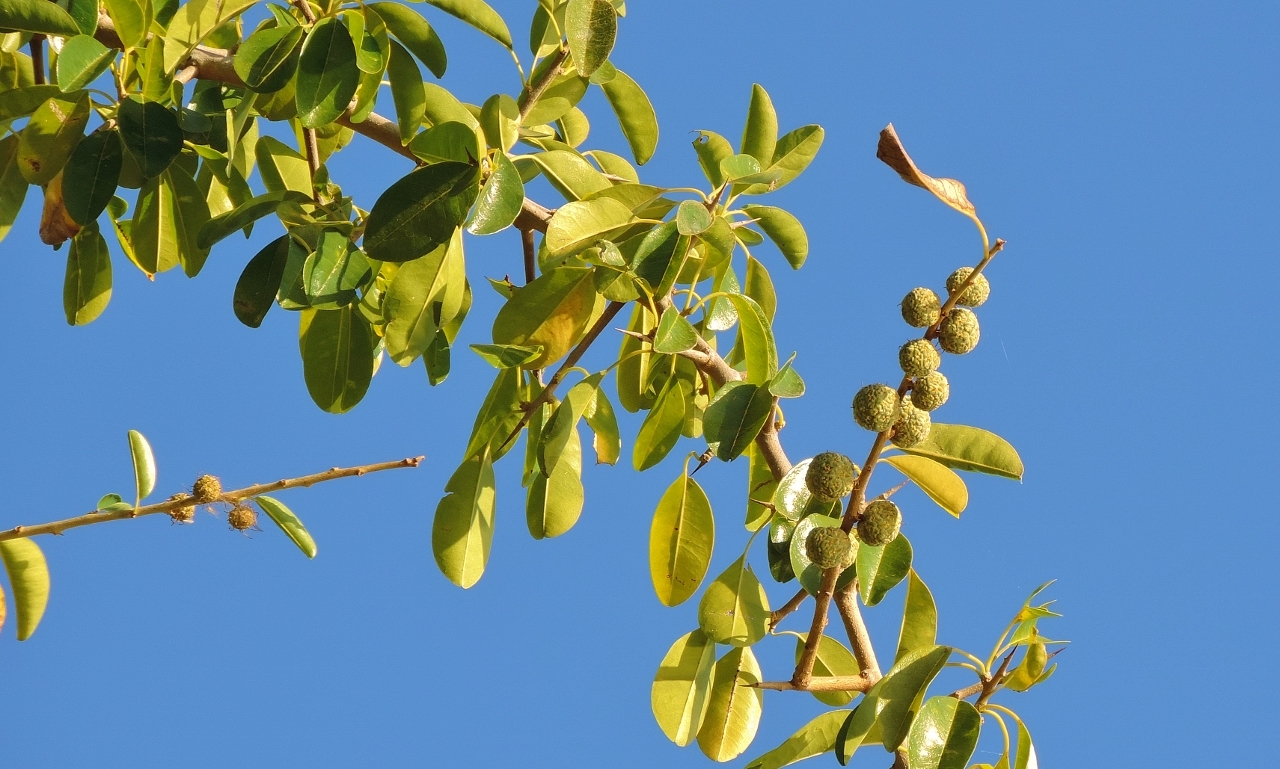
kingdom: Plantae
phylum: Tracheophyta
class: Magnoliopsida
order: Rosales
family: Moraceae
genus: Maclura
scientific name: Maclura africana
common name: African osage orange
